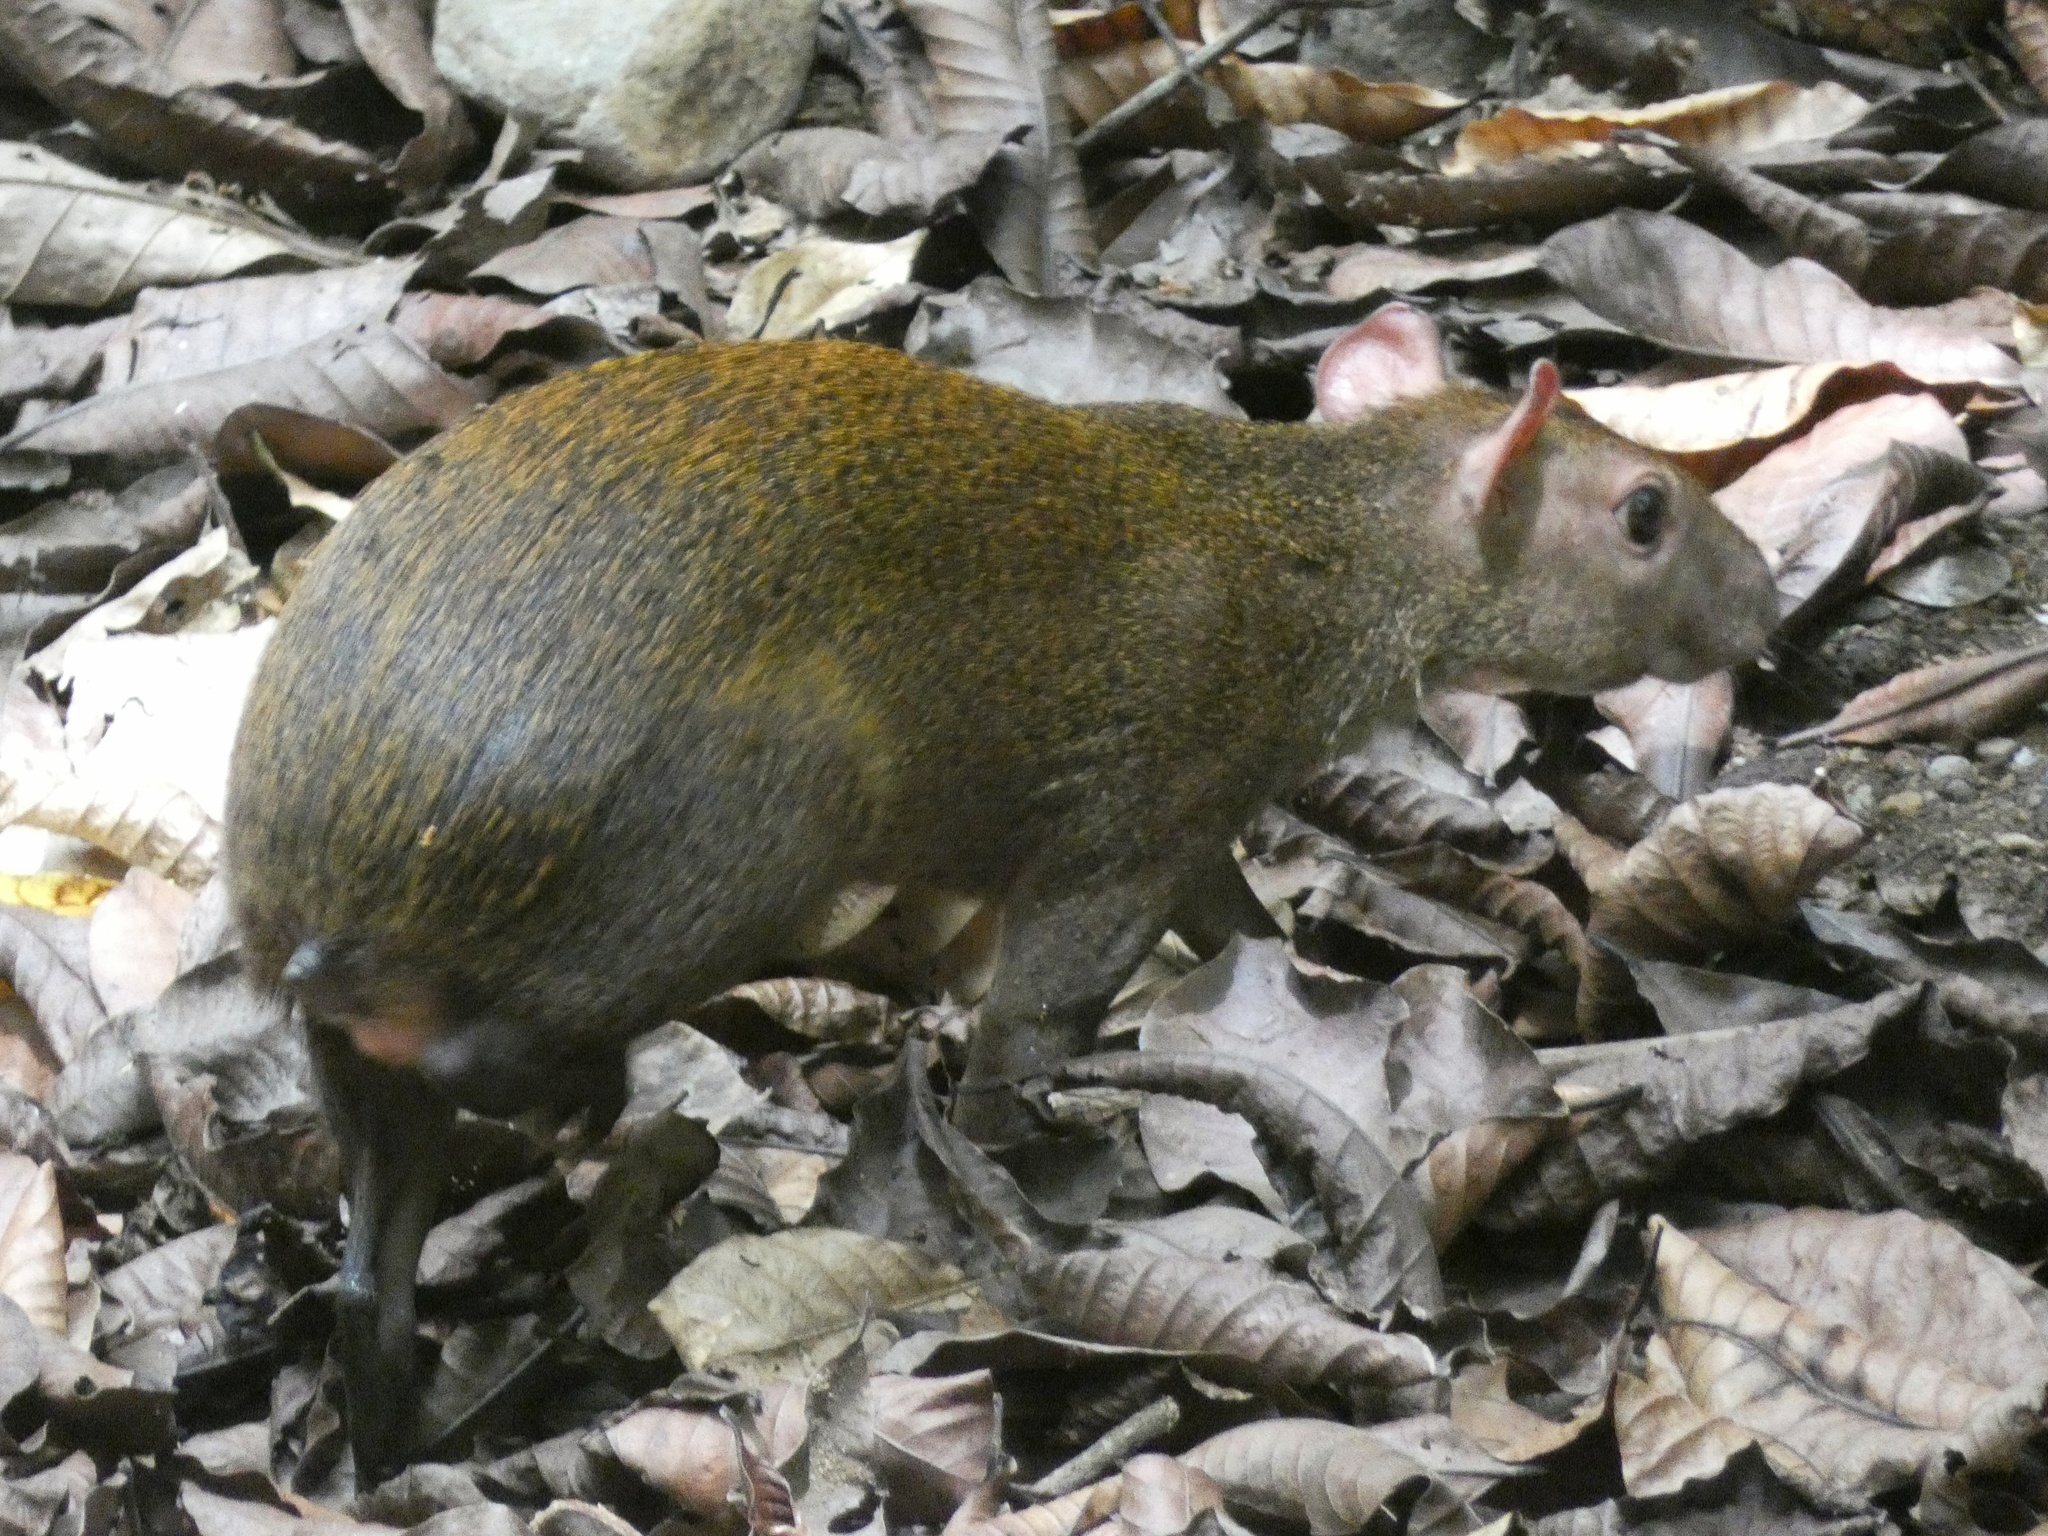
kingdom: Animalia
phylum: Chordata
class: Mammalia
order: Rodentia
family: Dasyproctidae
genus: Dasyprocta
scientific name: Dasyprocta punctata
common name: Central american agouti
